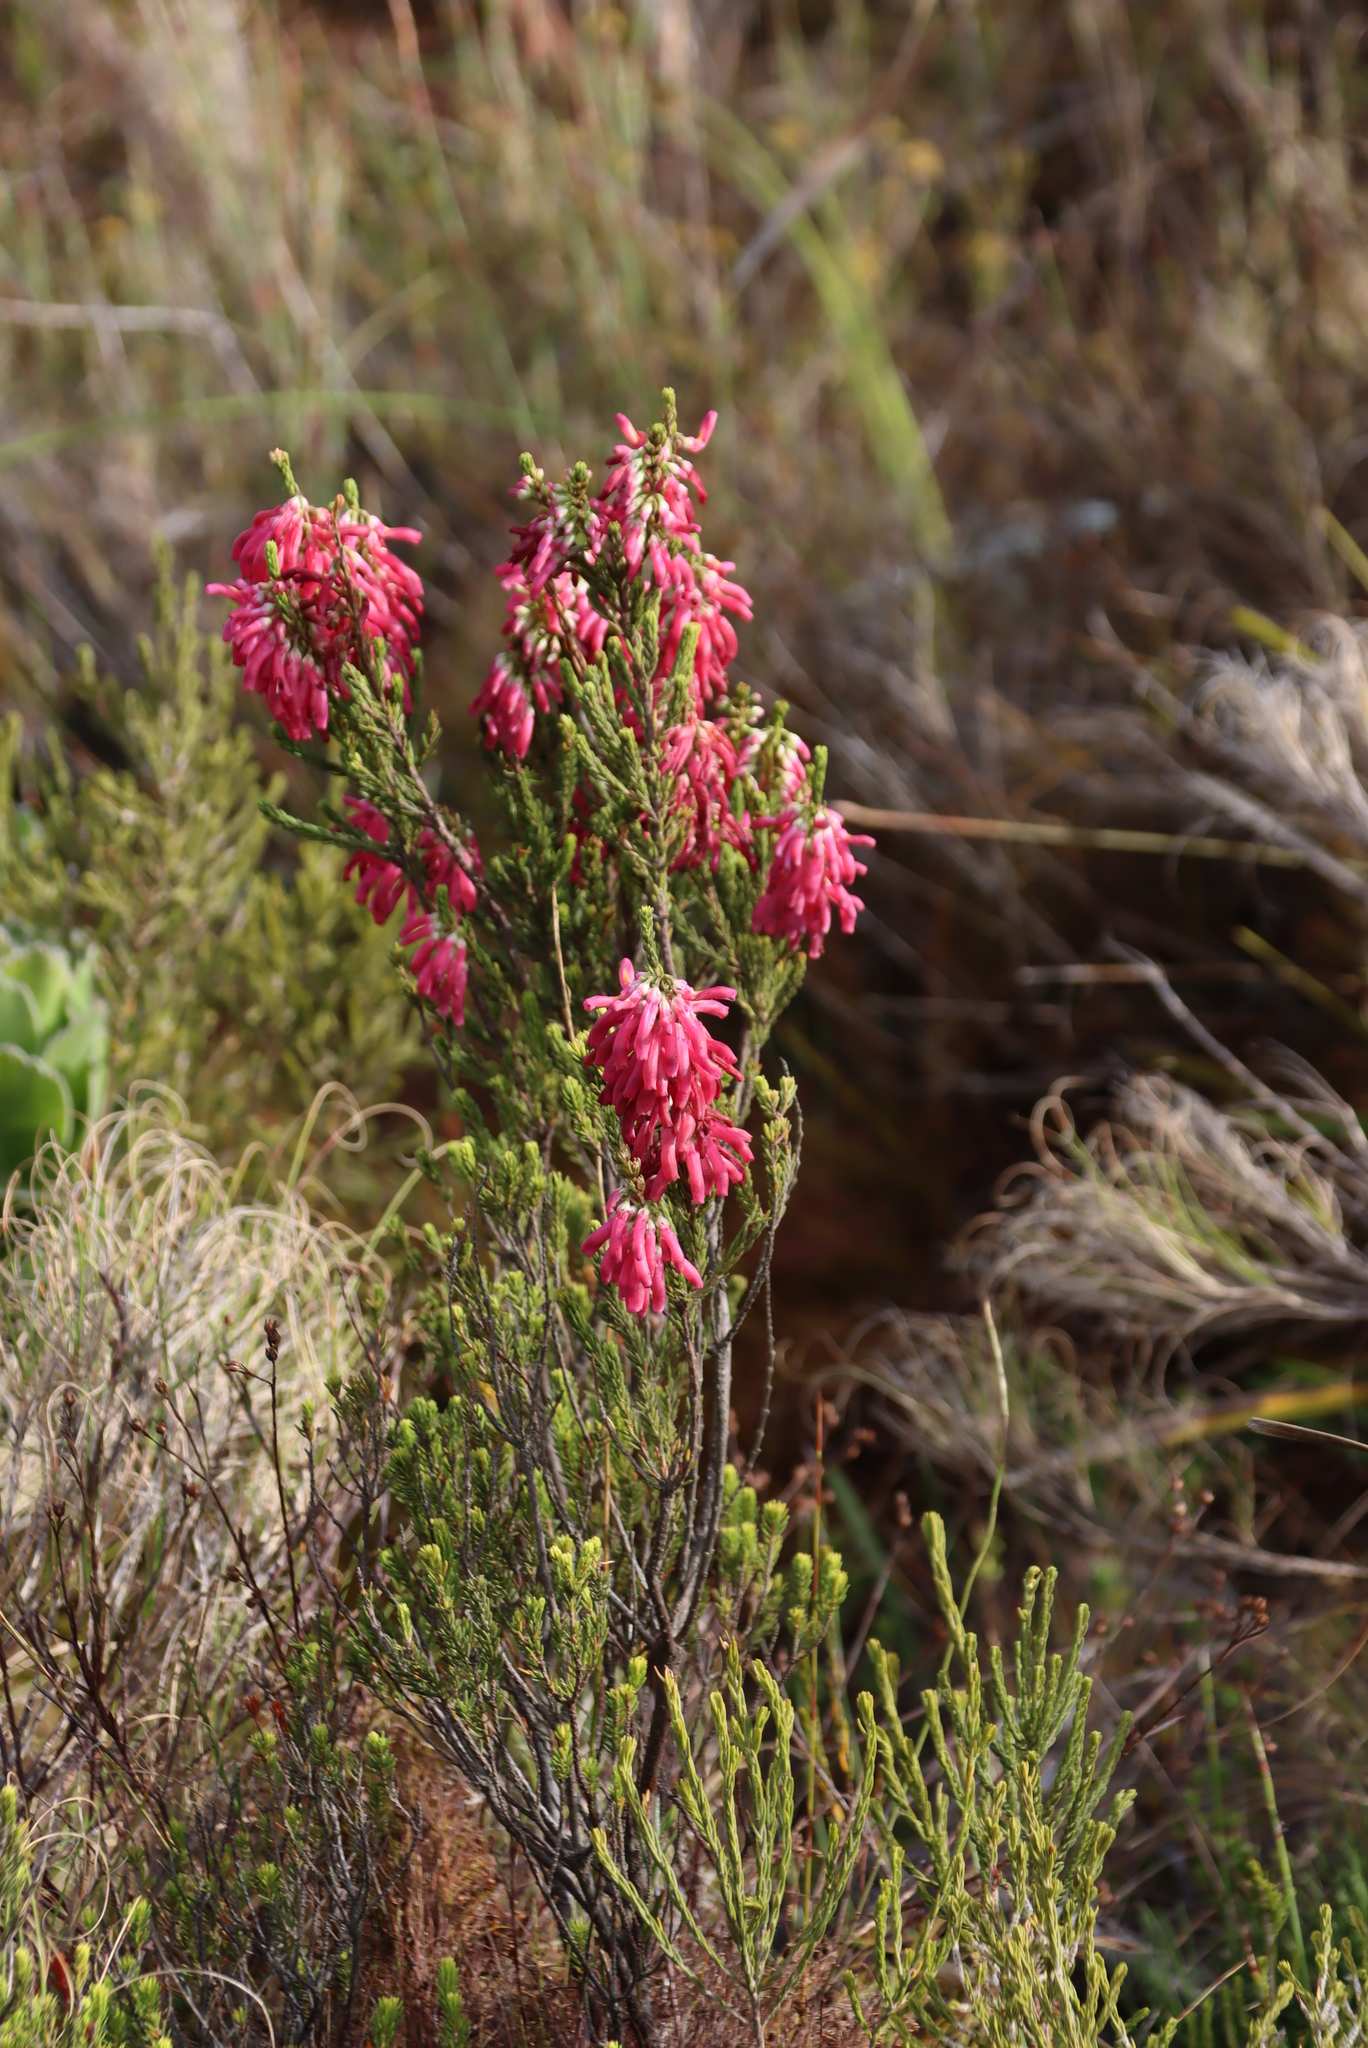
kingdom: Plantae
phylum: Tracheophyta
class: Magnoliopsida
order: Ericales
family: Ericaceae
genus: Erica
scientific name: Erica mammosa
